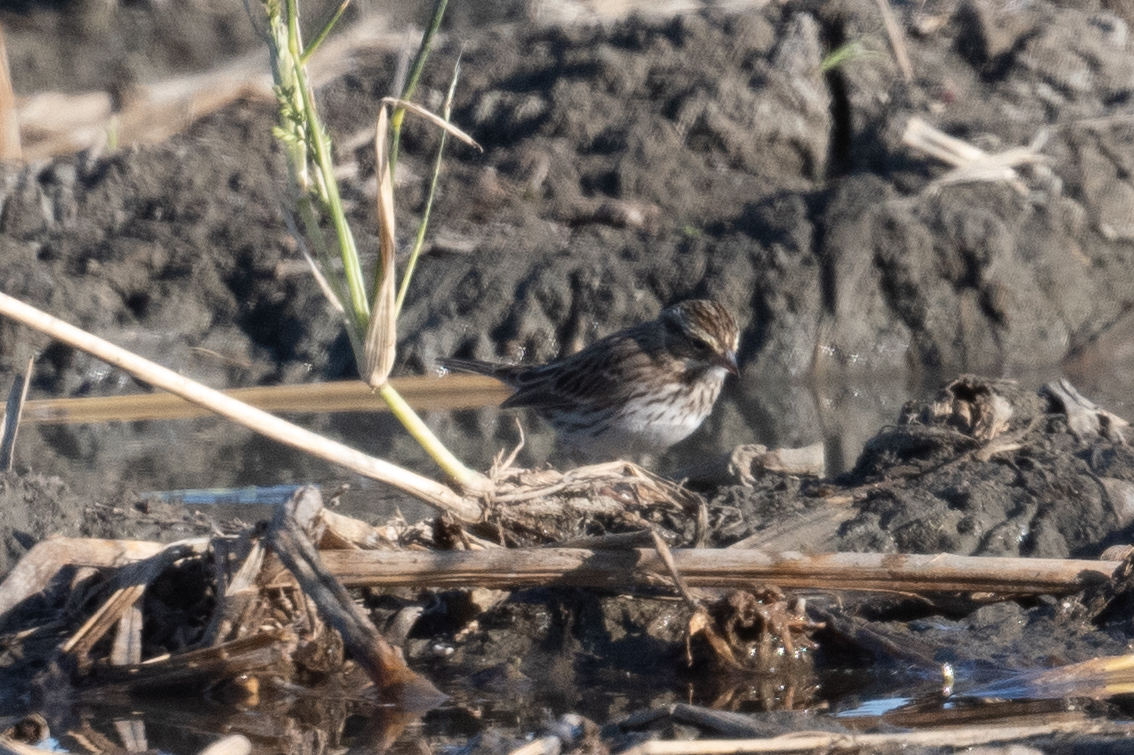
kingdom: Animalia
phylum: Chordata
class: Aves
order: Passeriformes
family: Passerellidae
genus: Passerculus
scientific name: Passerculus sandwichensis
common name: Savannah sparrow
